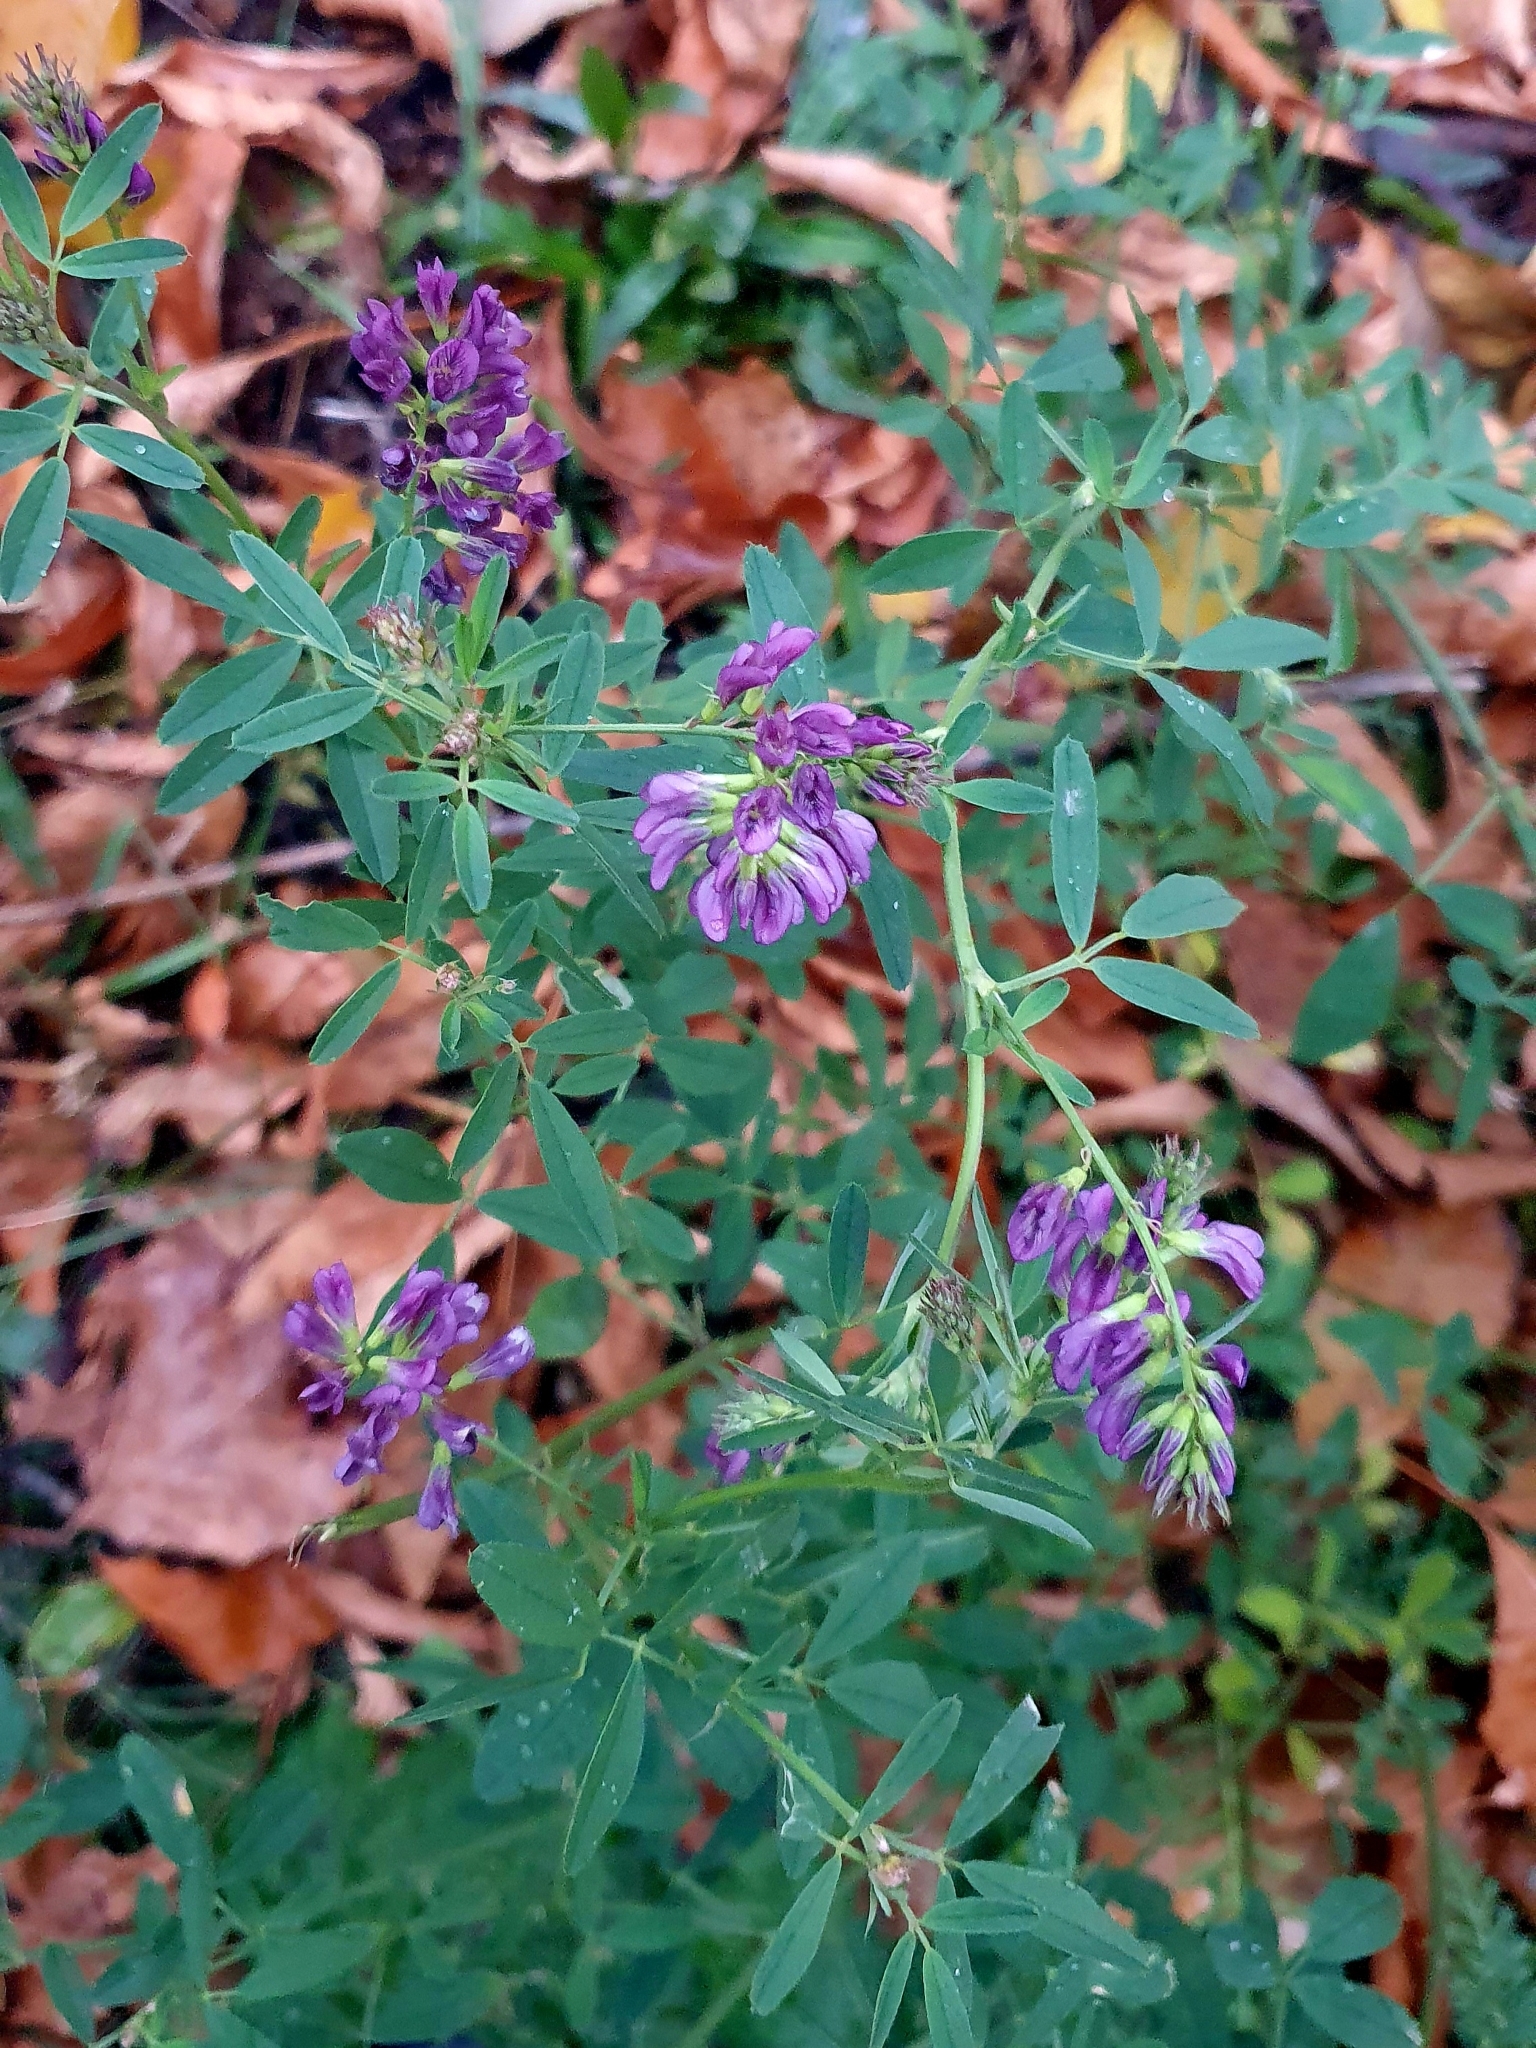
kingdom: Plantae
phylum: Tracheophyta
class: Magnoliopsida
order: Fabales
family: Fabaceae
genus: Medicago
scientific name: Medicago sativa
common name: Alfalfa
